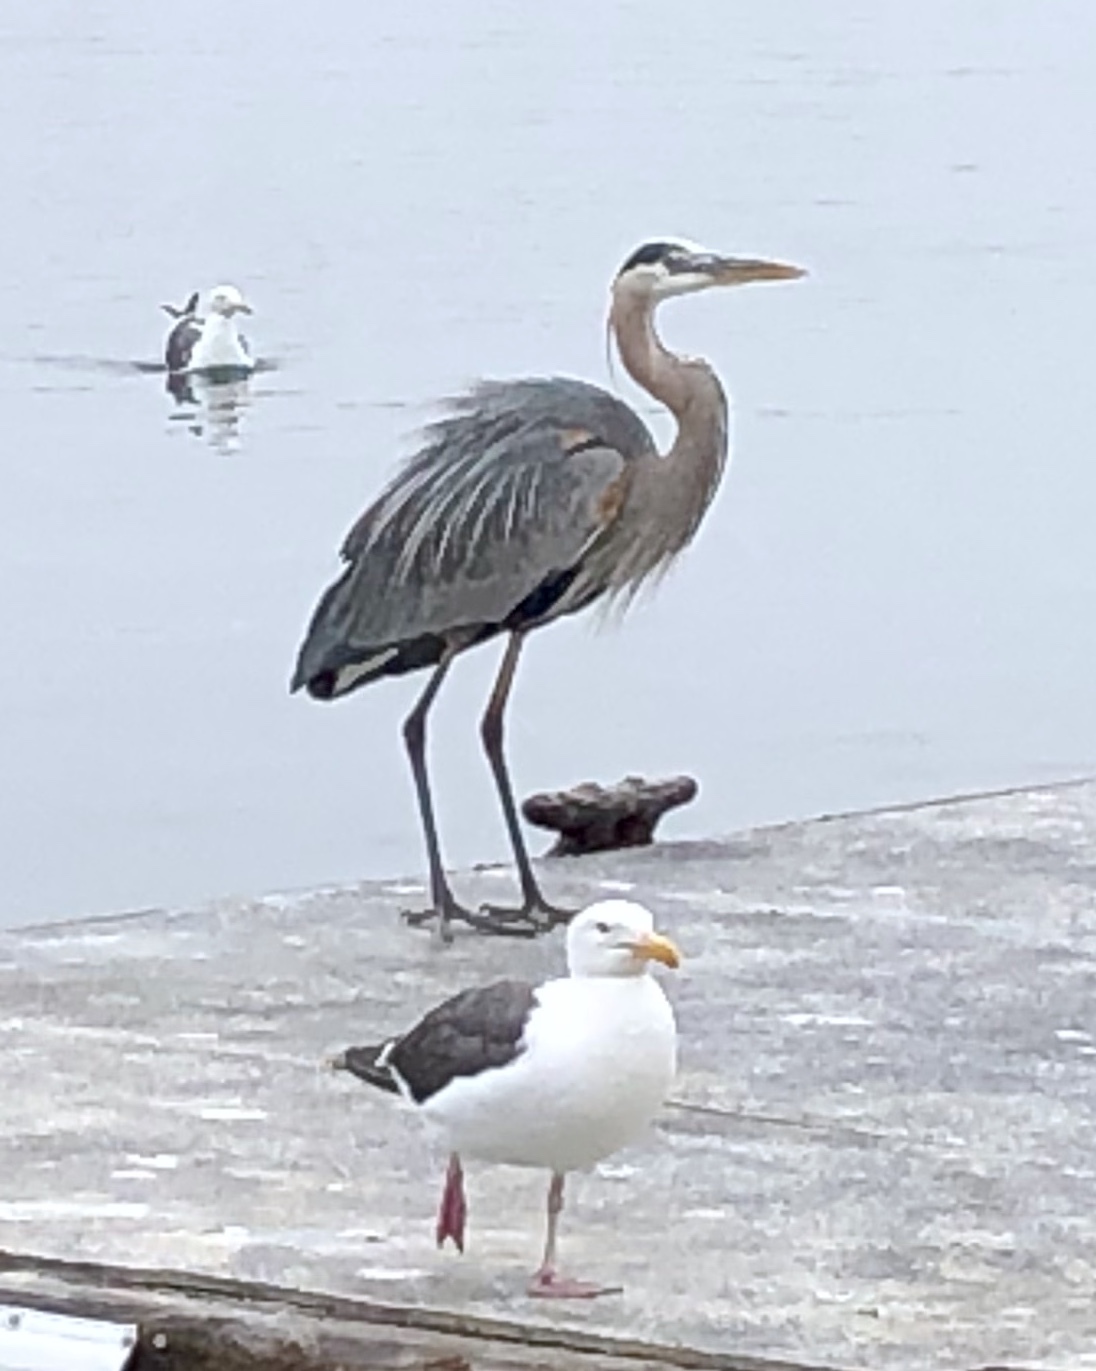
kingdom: Animalia
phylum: Chordata
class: Aves
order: Pelecaniformes
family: Ardeidae
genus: Ardea
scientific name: Ardea herodias
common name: Great blue heron
